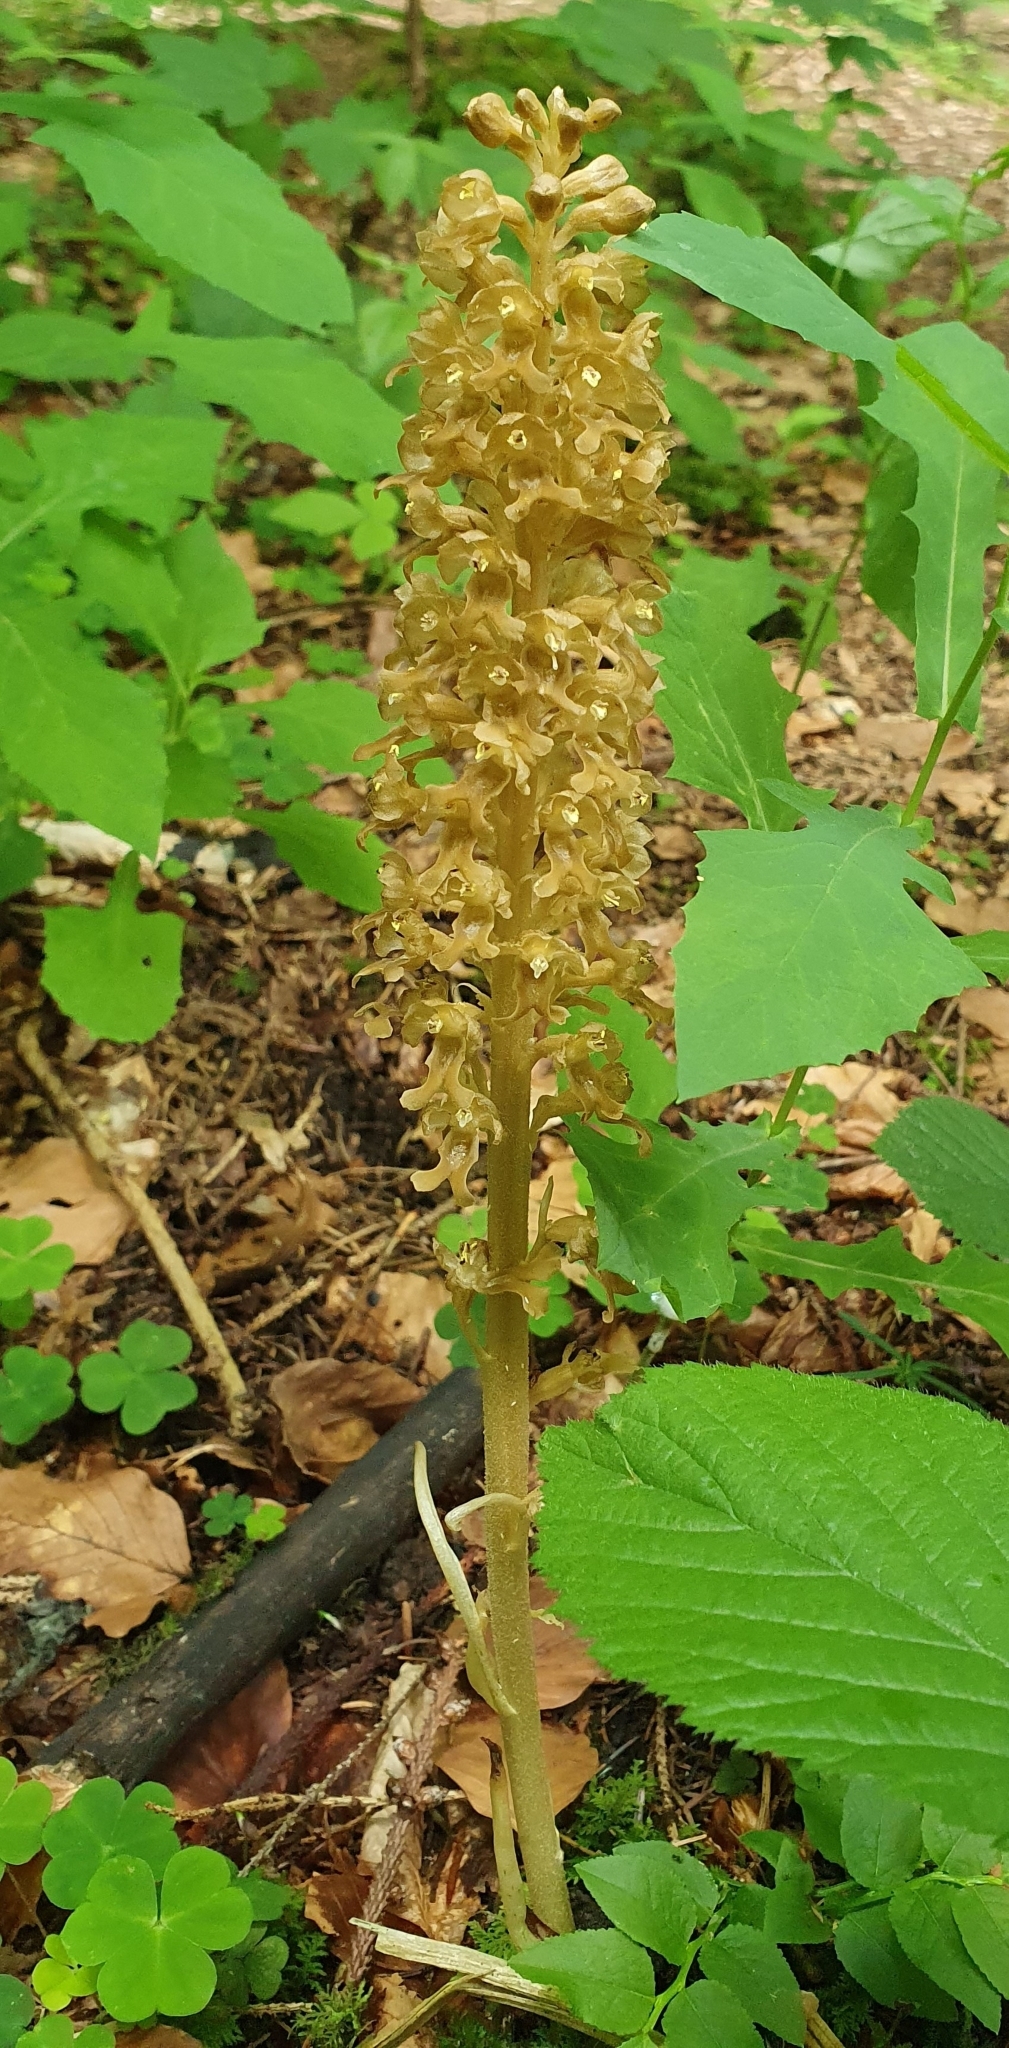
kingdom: Plantae
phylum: Tracheophyta
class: Liliopsida
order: Asparagales
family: Orchidaceae
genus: Neottia
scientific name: Neottia nidus-avis
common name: Bird's-nest orchid
